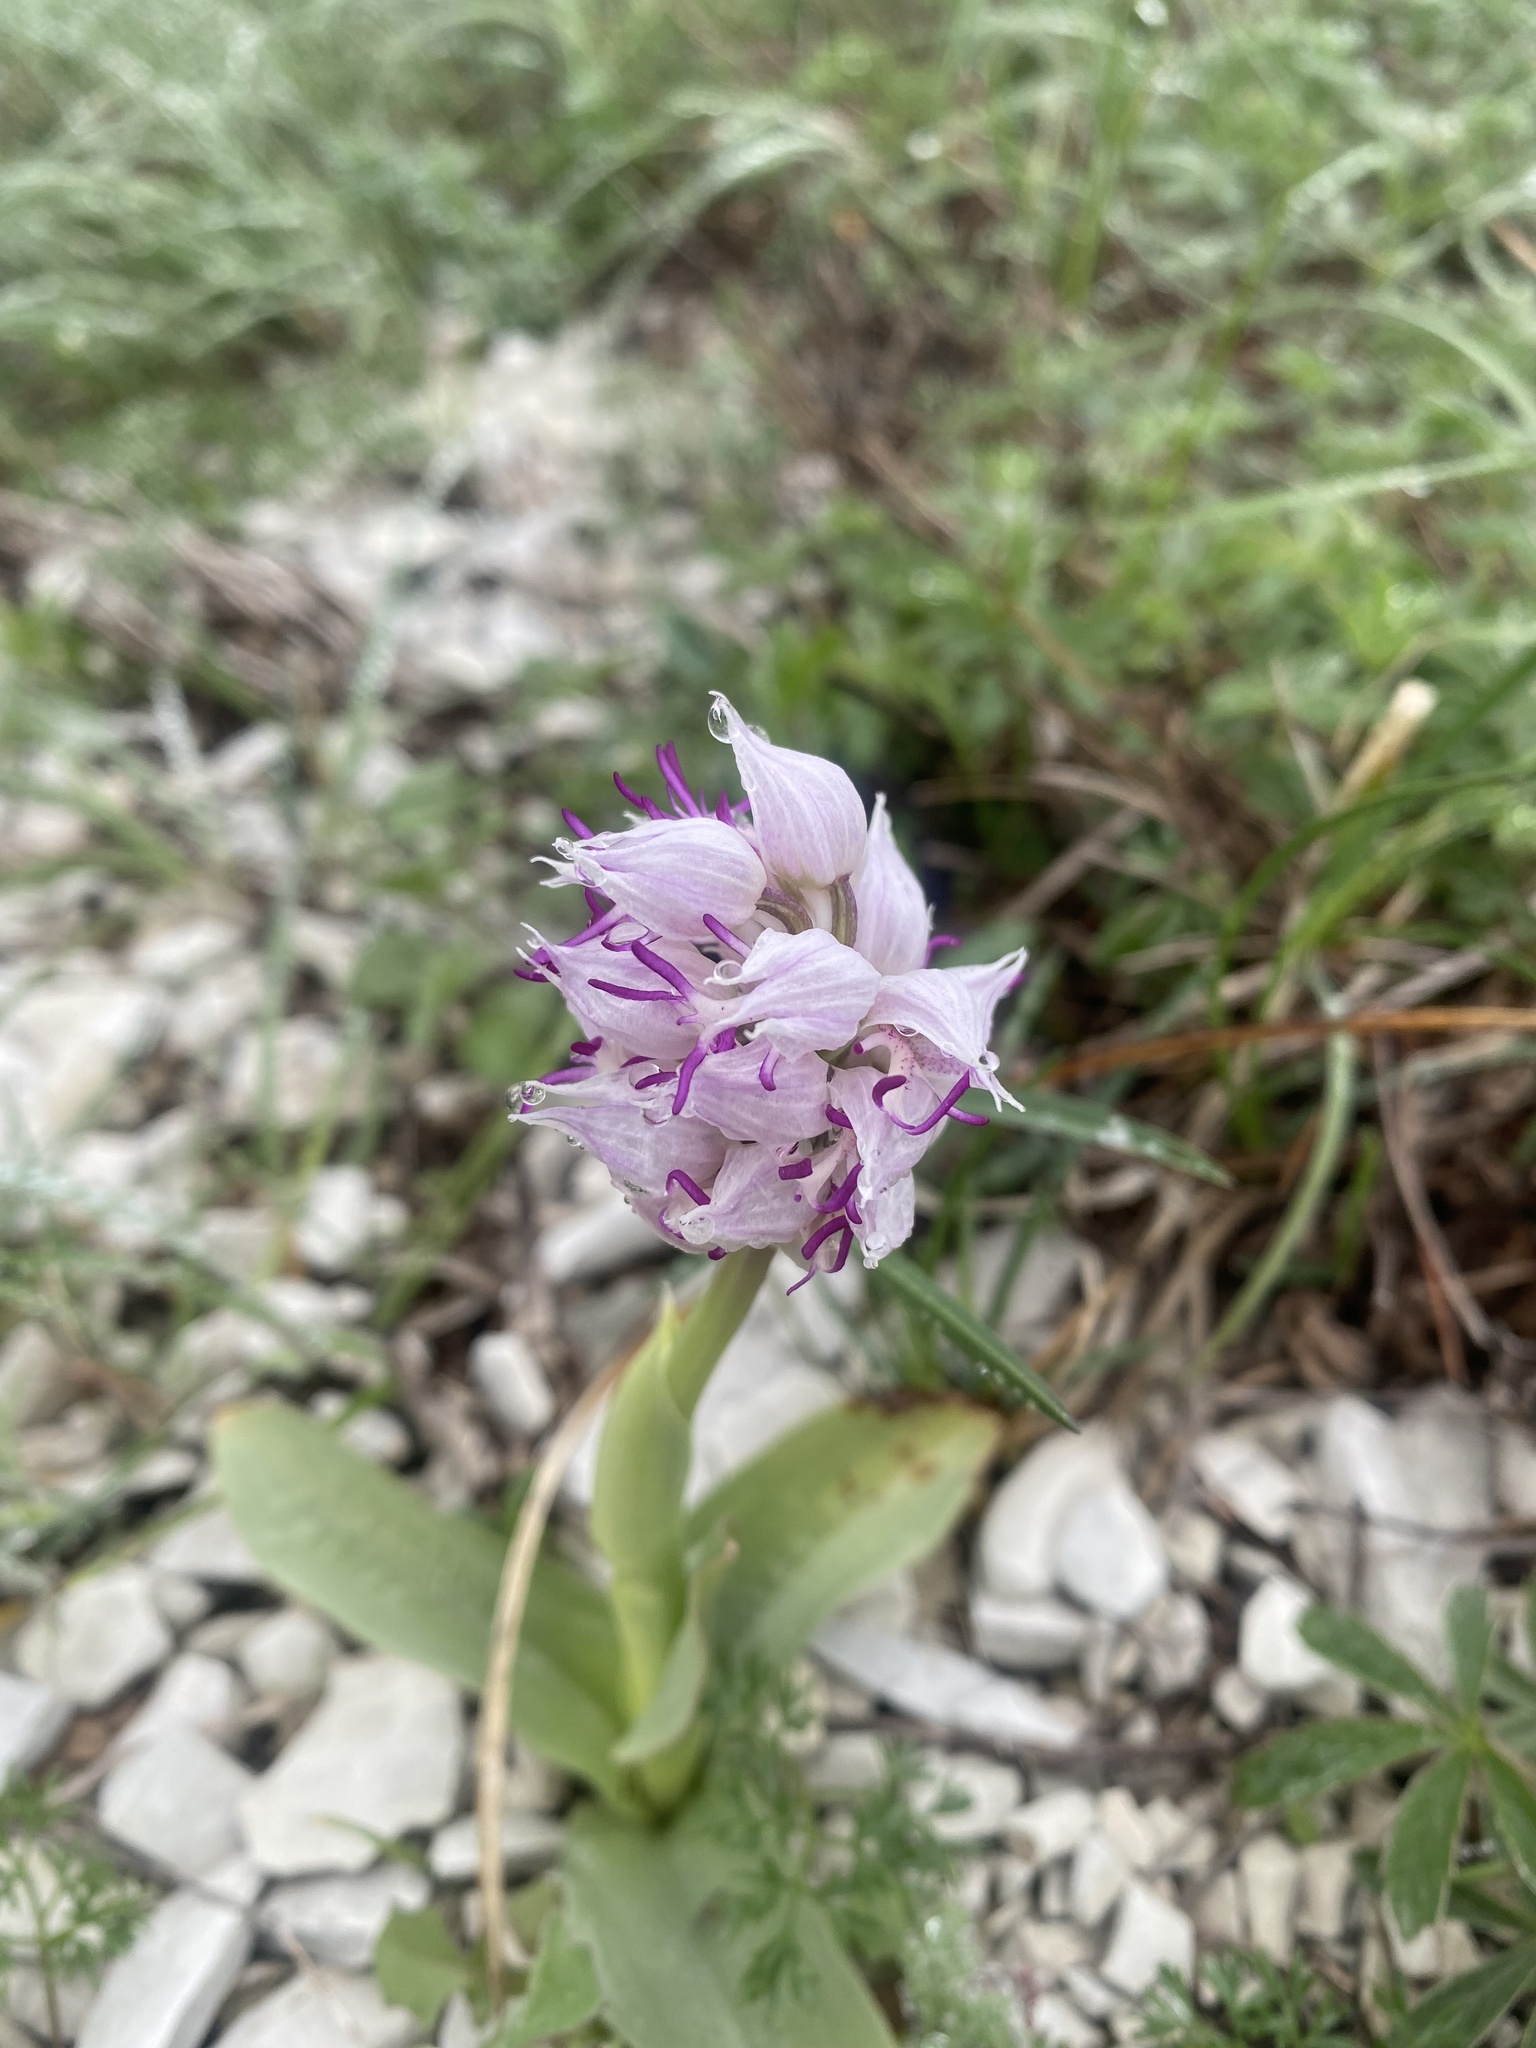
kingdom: Plantae
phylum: Tracheophyta
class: Liliopsida
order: Asparagales
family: Orchidaceae
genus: Orchis
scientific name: Orchis simia
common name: Monkey orchid
